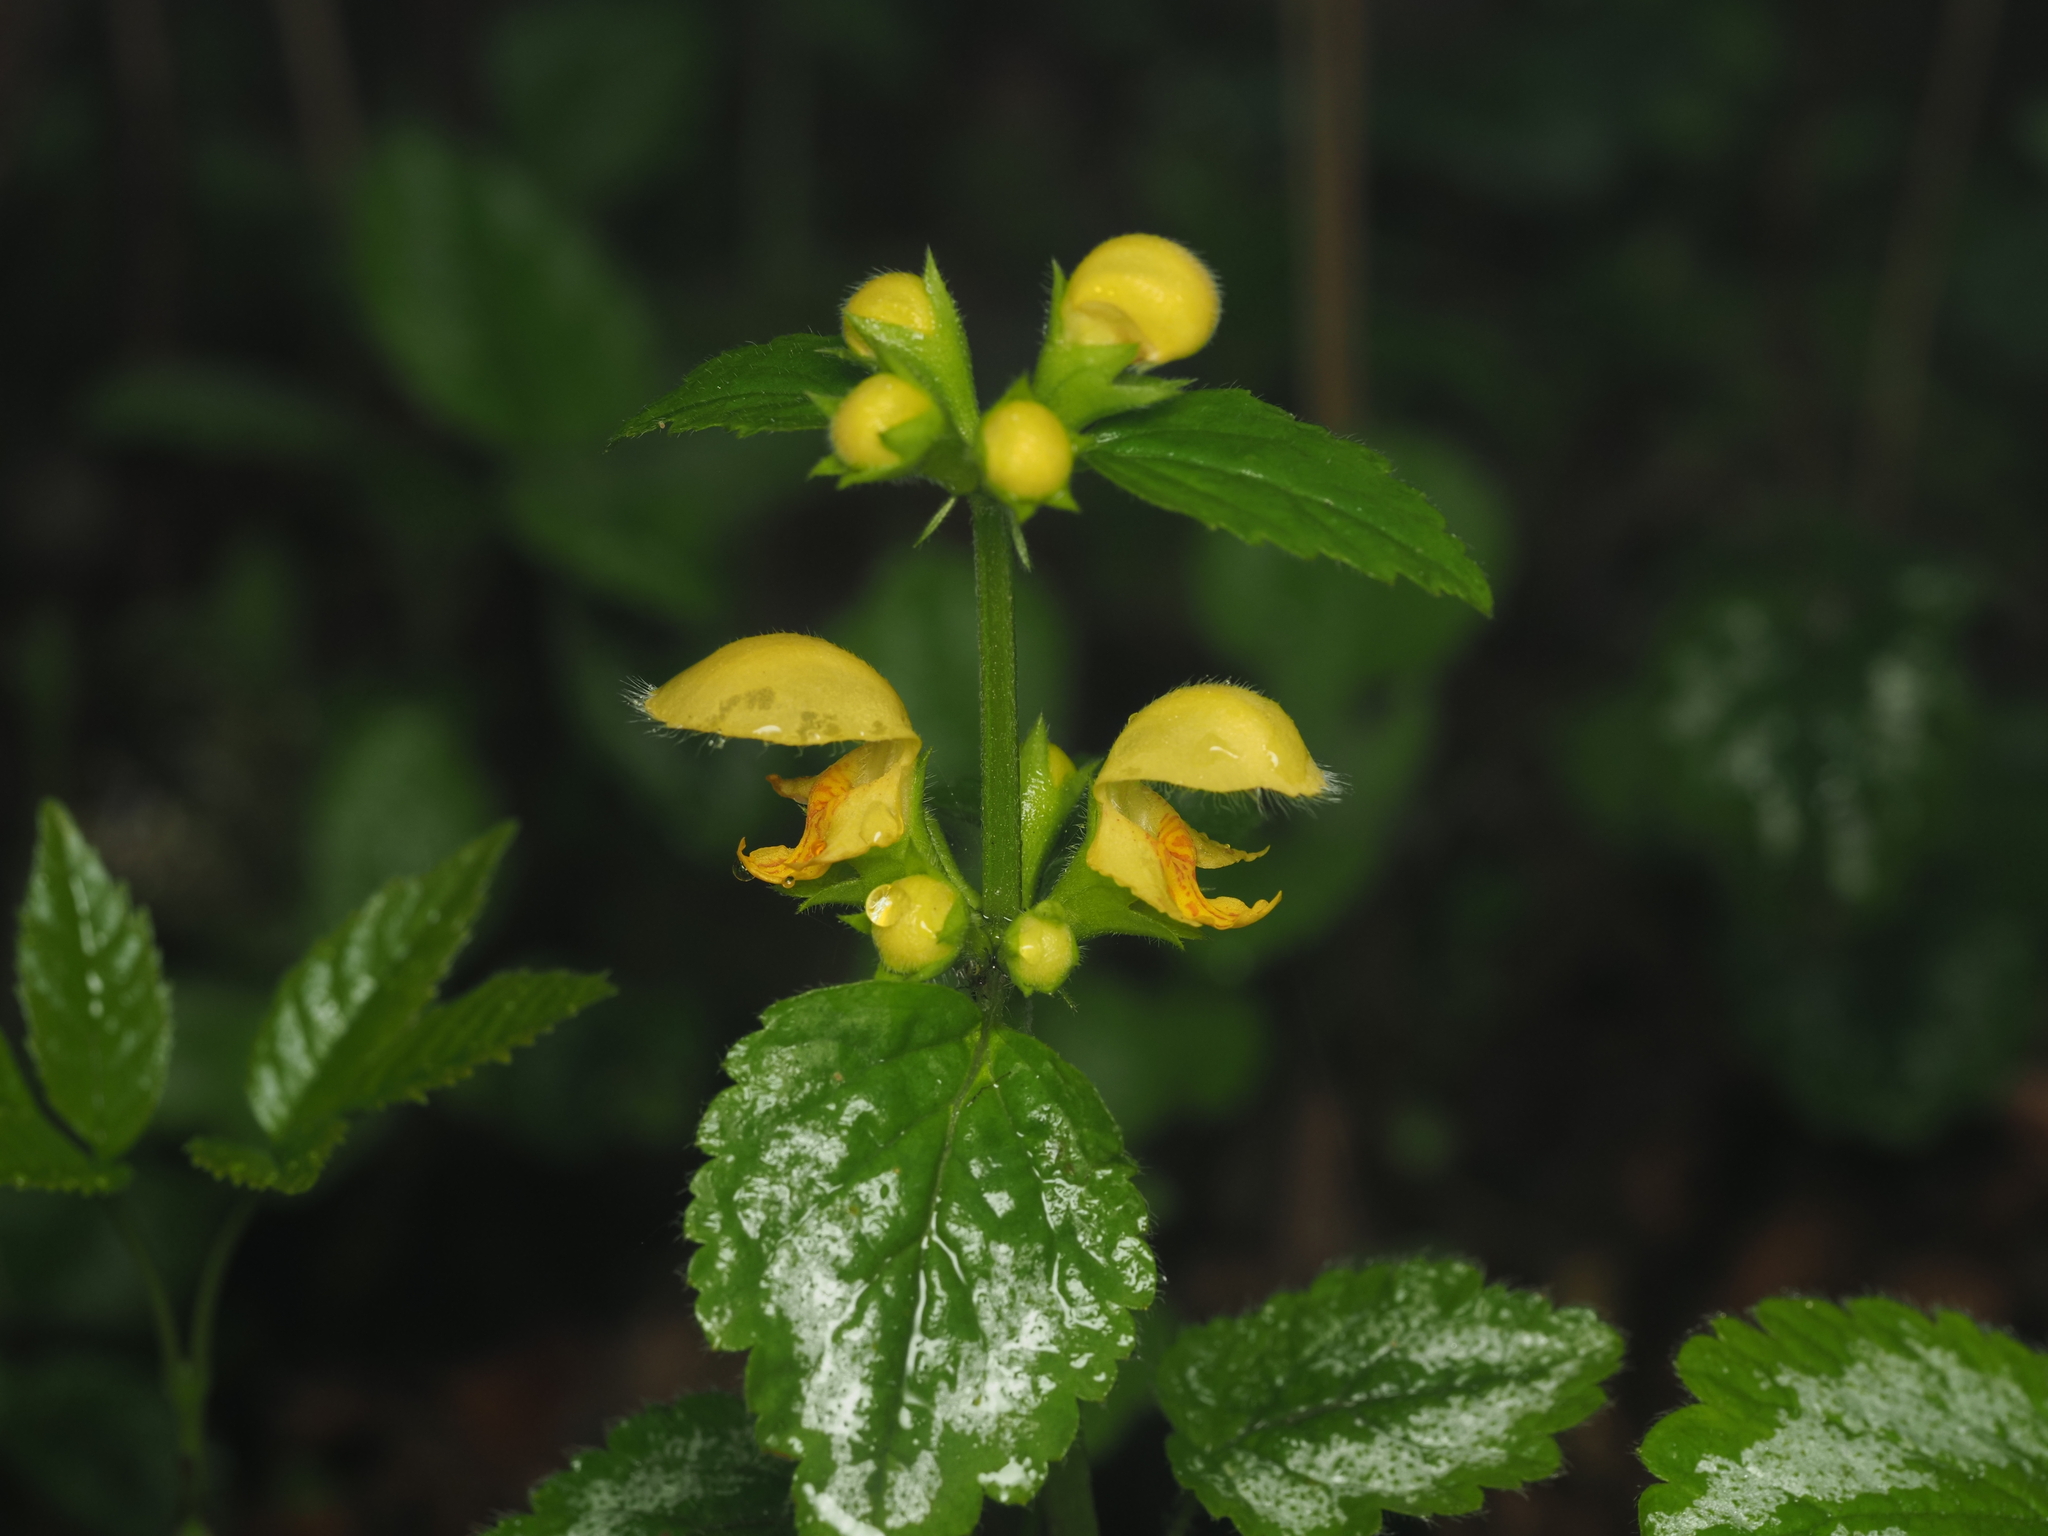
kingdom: Plantae
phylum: Tracheophyta
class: Magnoliopsida
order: Lamiales
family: Lamiaceae
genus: Lamium
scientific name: Lamium galeobdolon
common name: Yellow archangel
